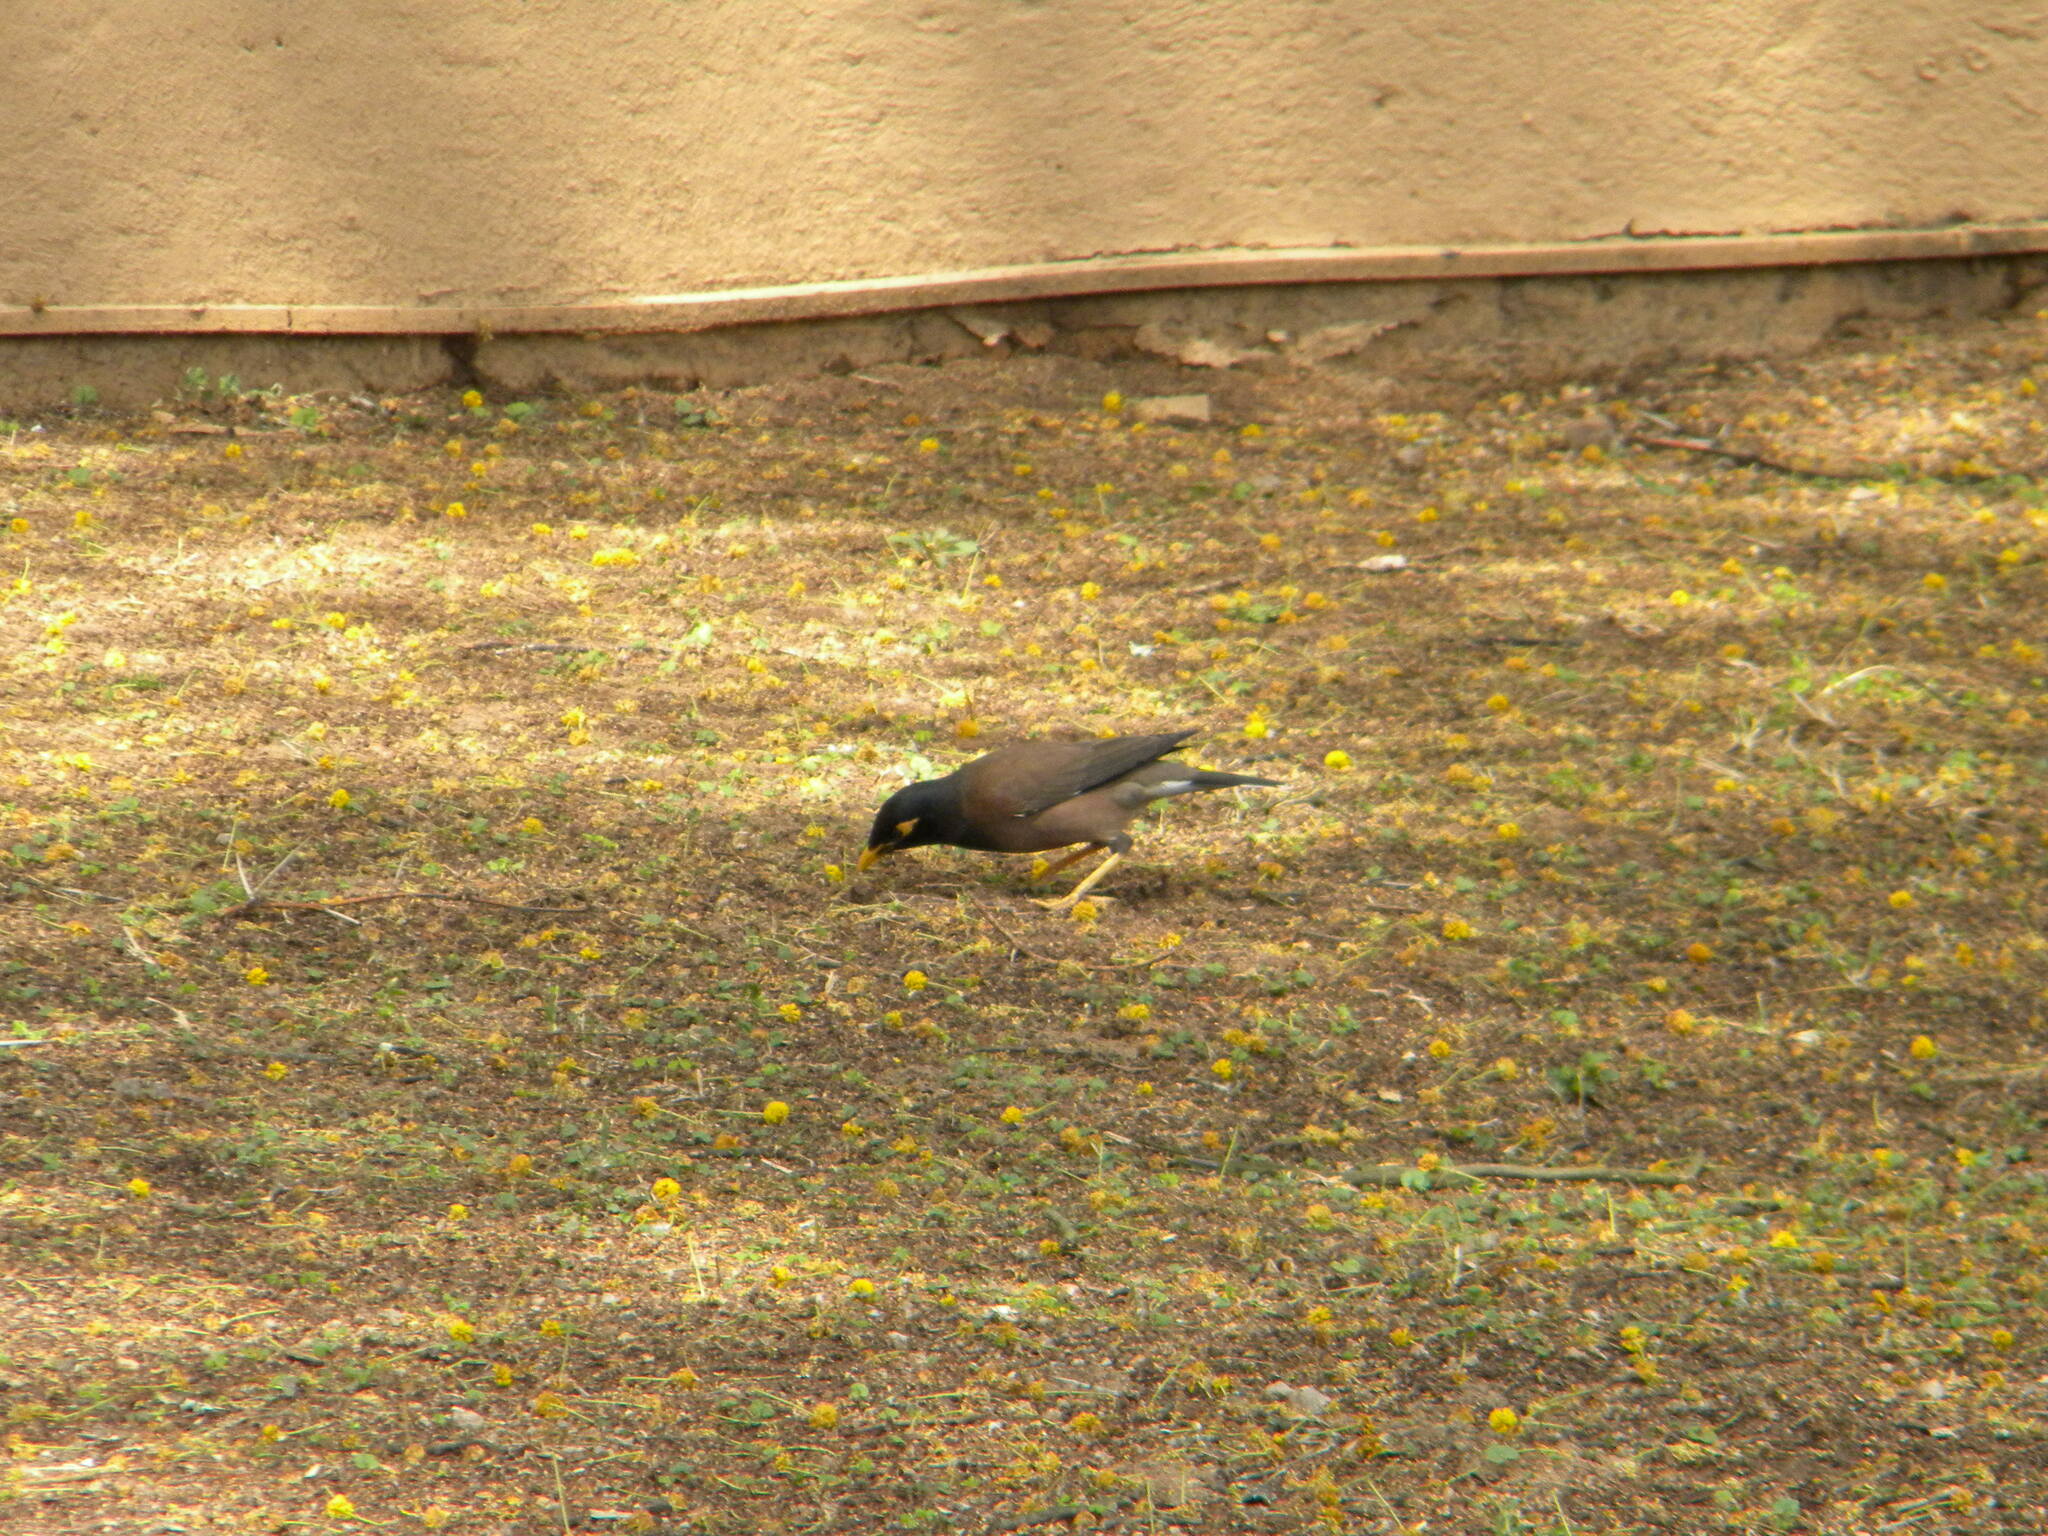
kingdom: Animalia
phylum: Chordata
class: Aves
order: Passeriformes
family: Sturnidae
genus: Acridotheres
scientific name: Acridotheres tristis
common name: Common myna
